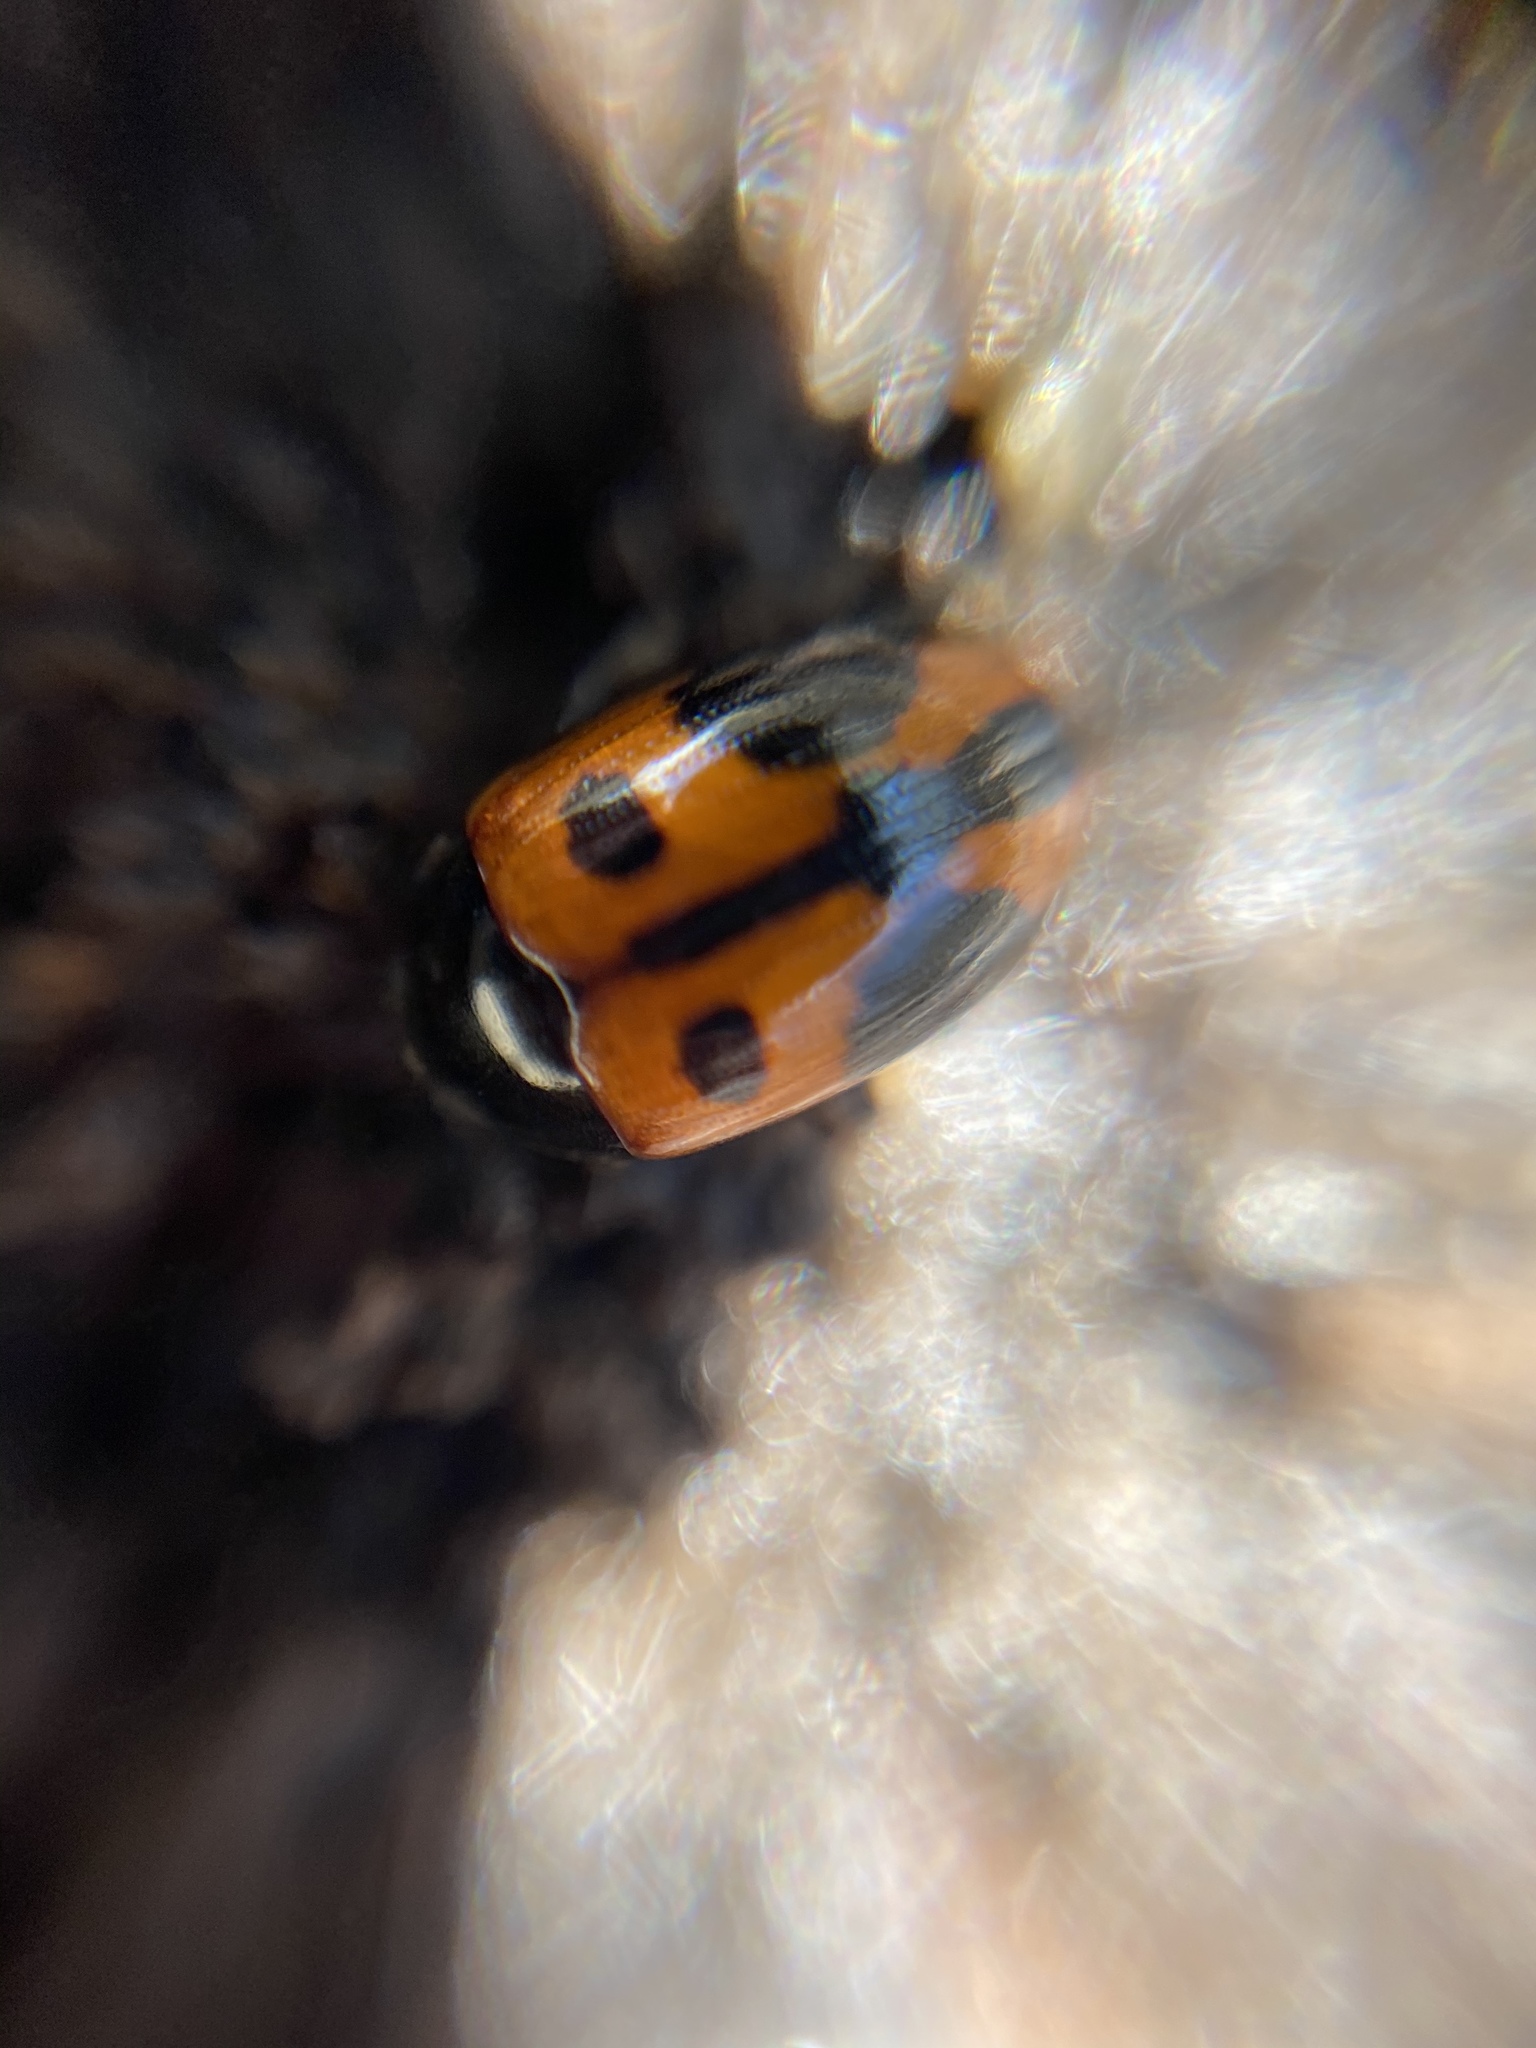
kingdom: Animalia
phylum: Arthropoda
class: Insecta
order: Coleoptera
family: Tenebrionidae
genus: Diaperis
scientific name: Diaperis maculata
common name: Darkling beetle
